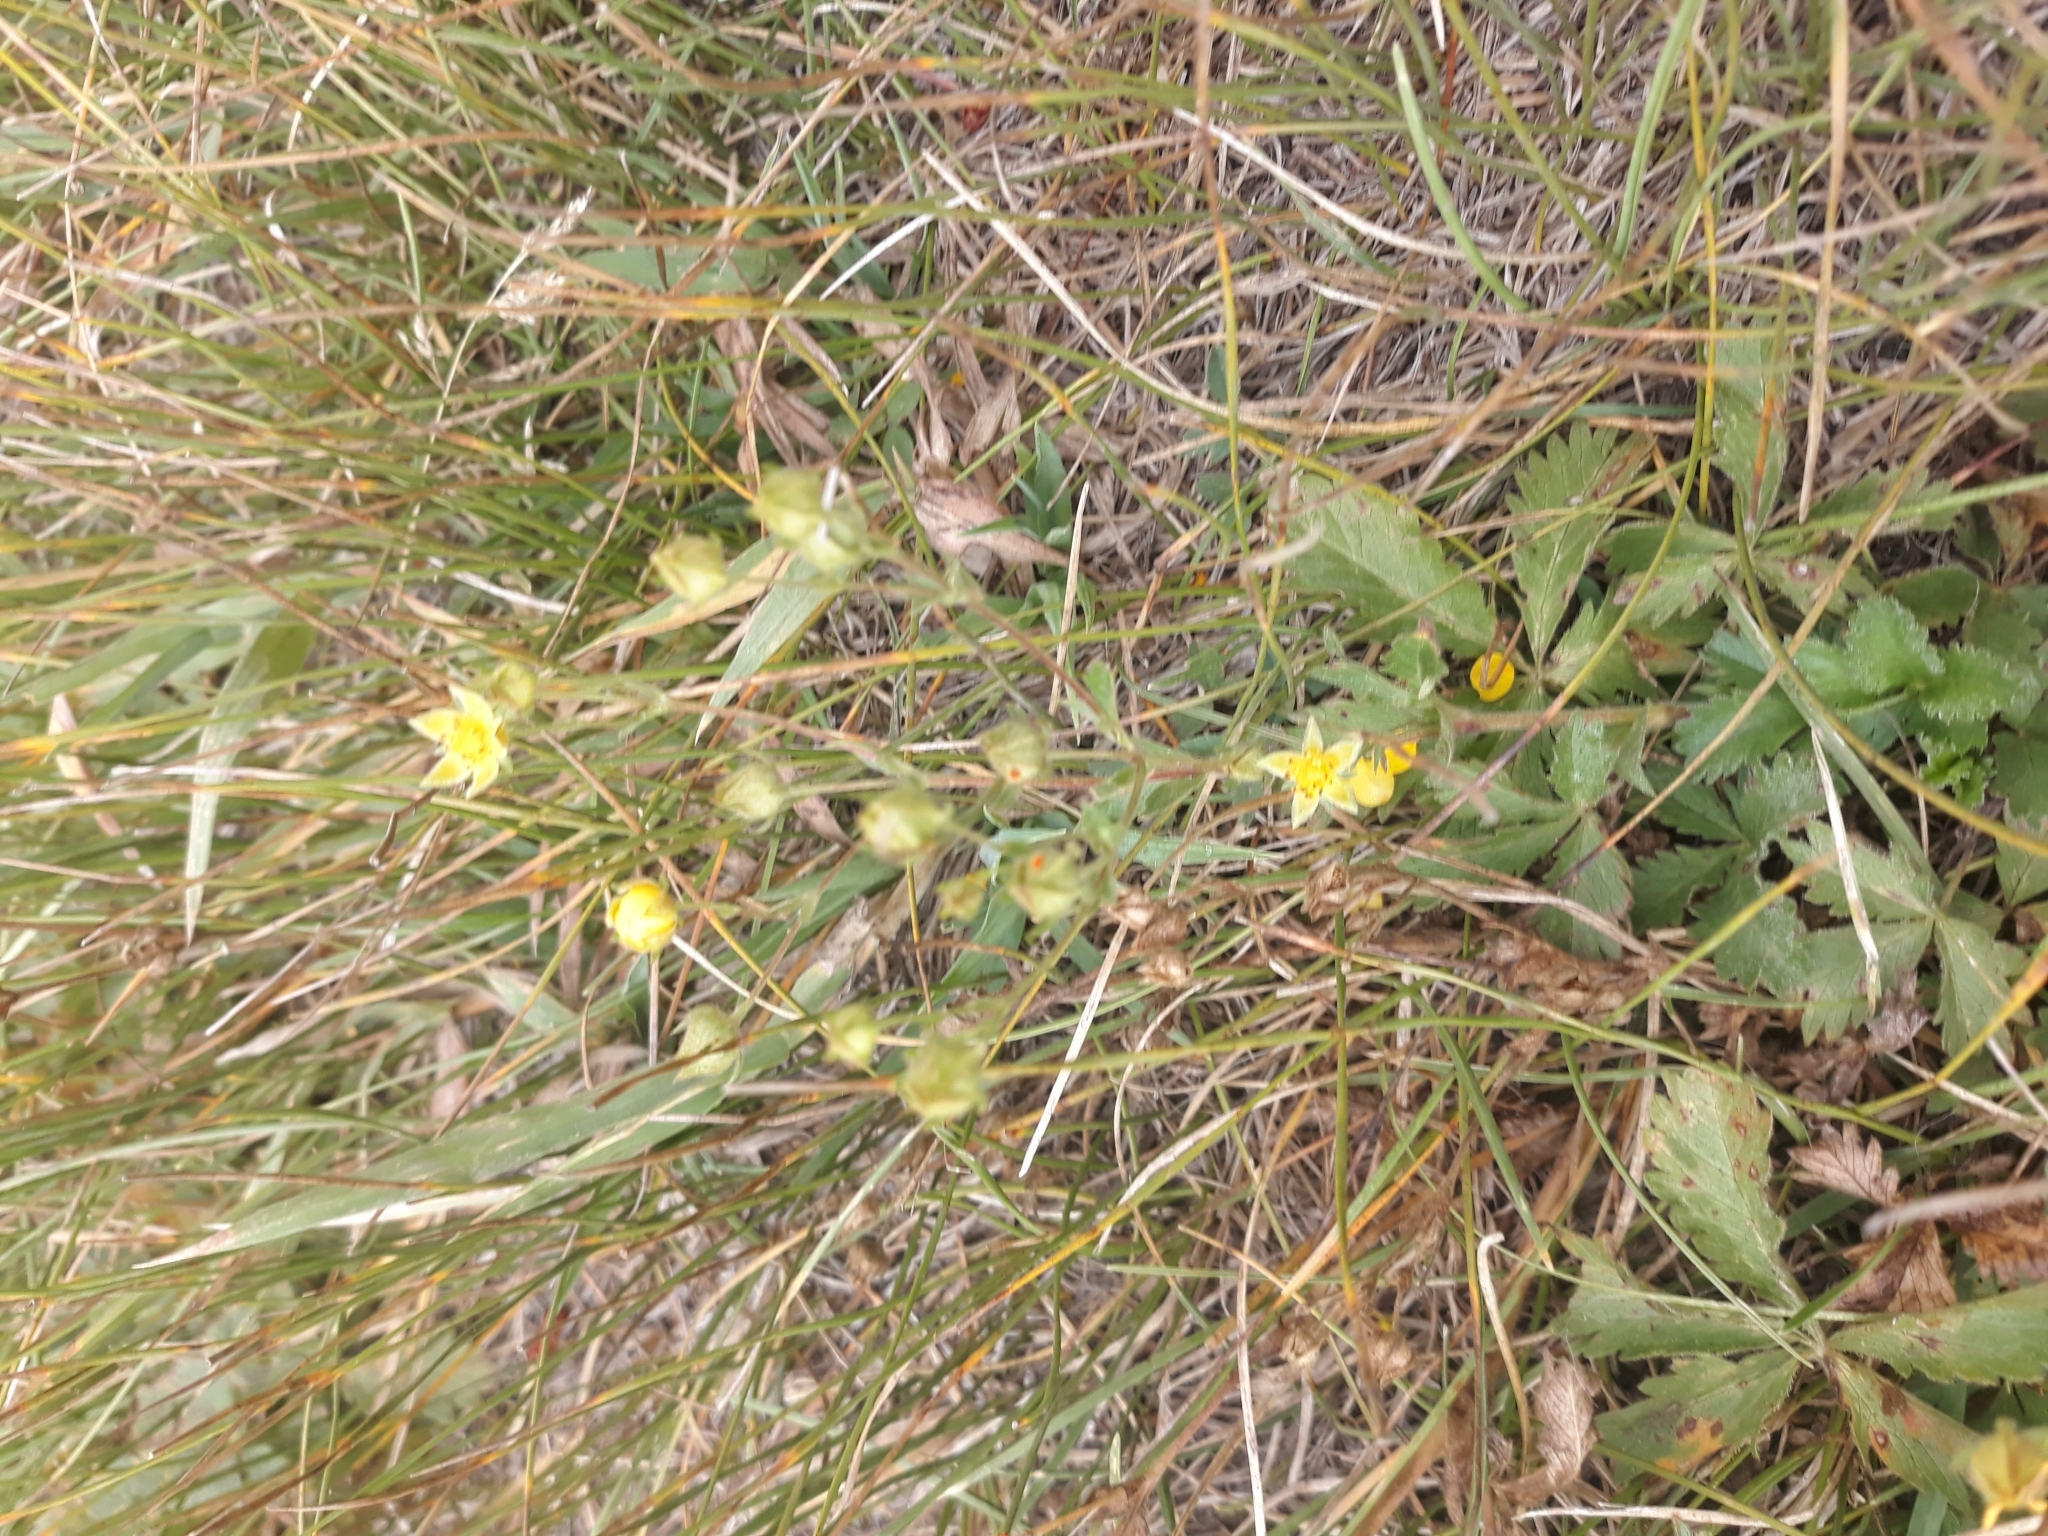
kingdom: Plantae
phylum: Tracheophyta
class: Magnoliopsida
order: Rosales
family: Rosaceae
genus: Potentilla
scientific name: Potentilla gracilis
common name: Graceful cinquefoil
